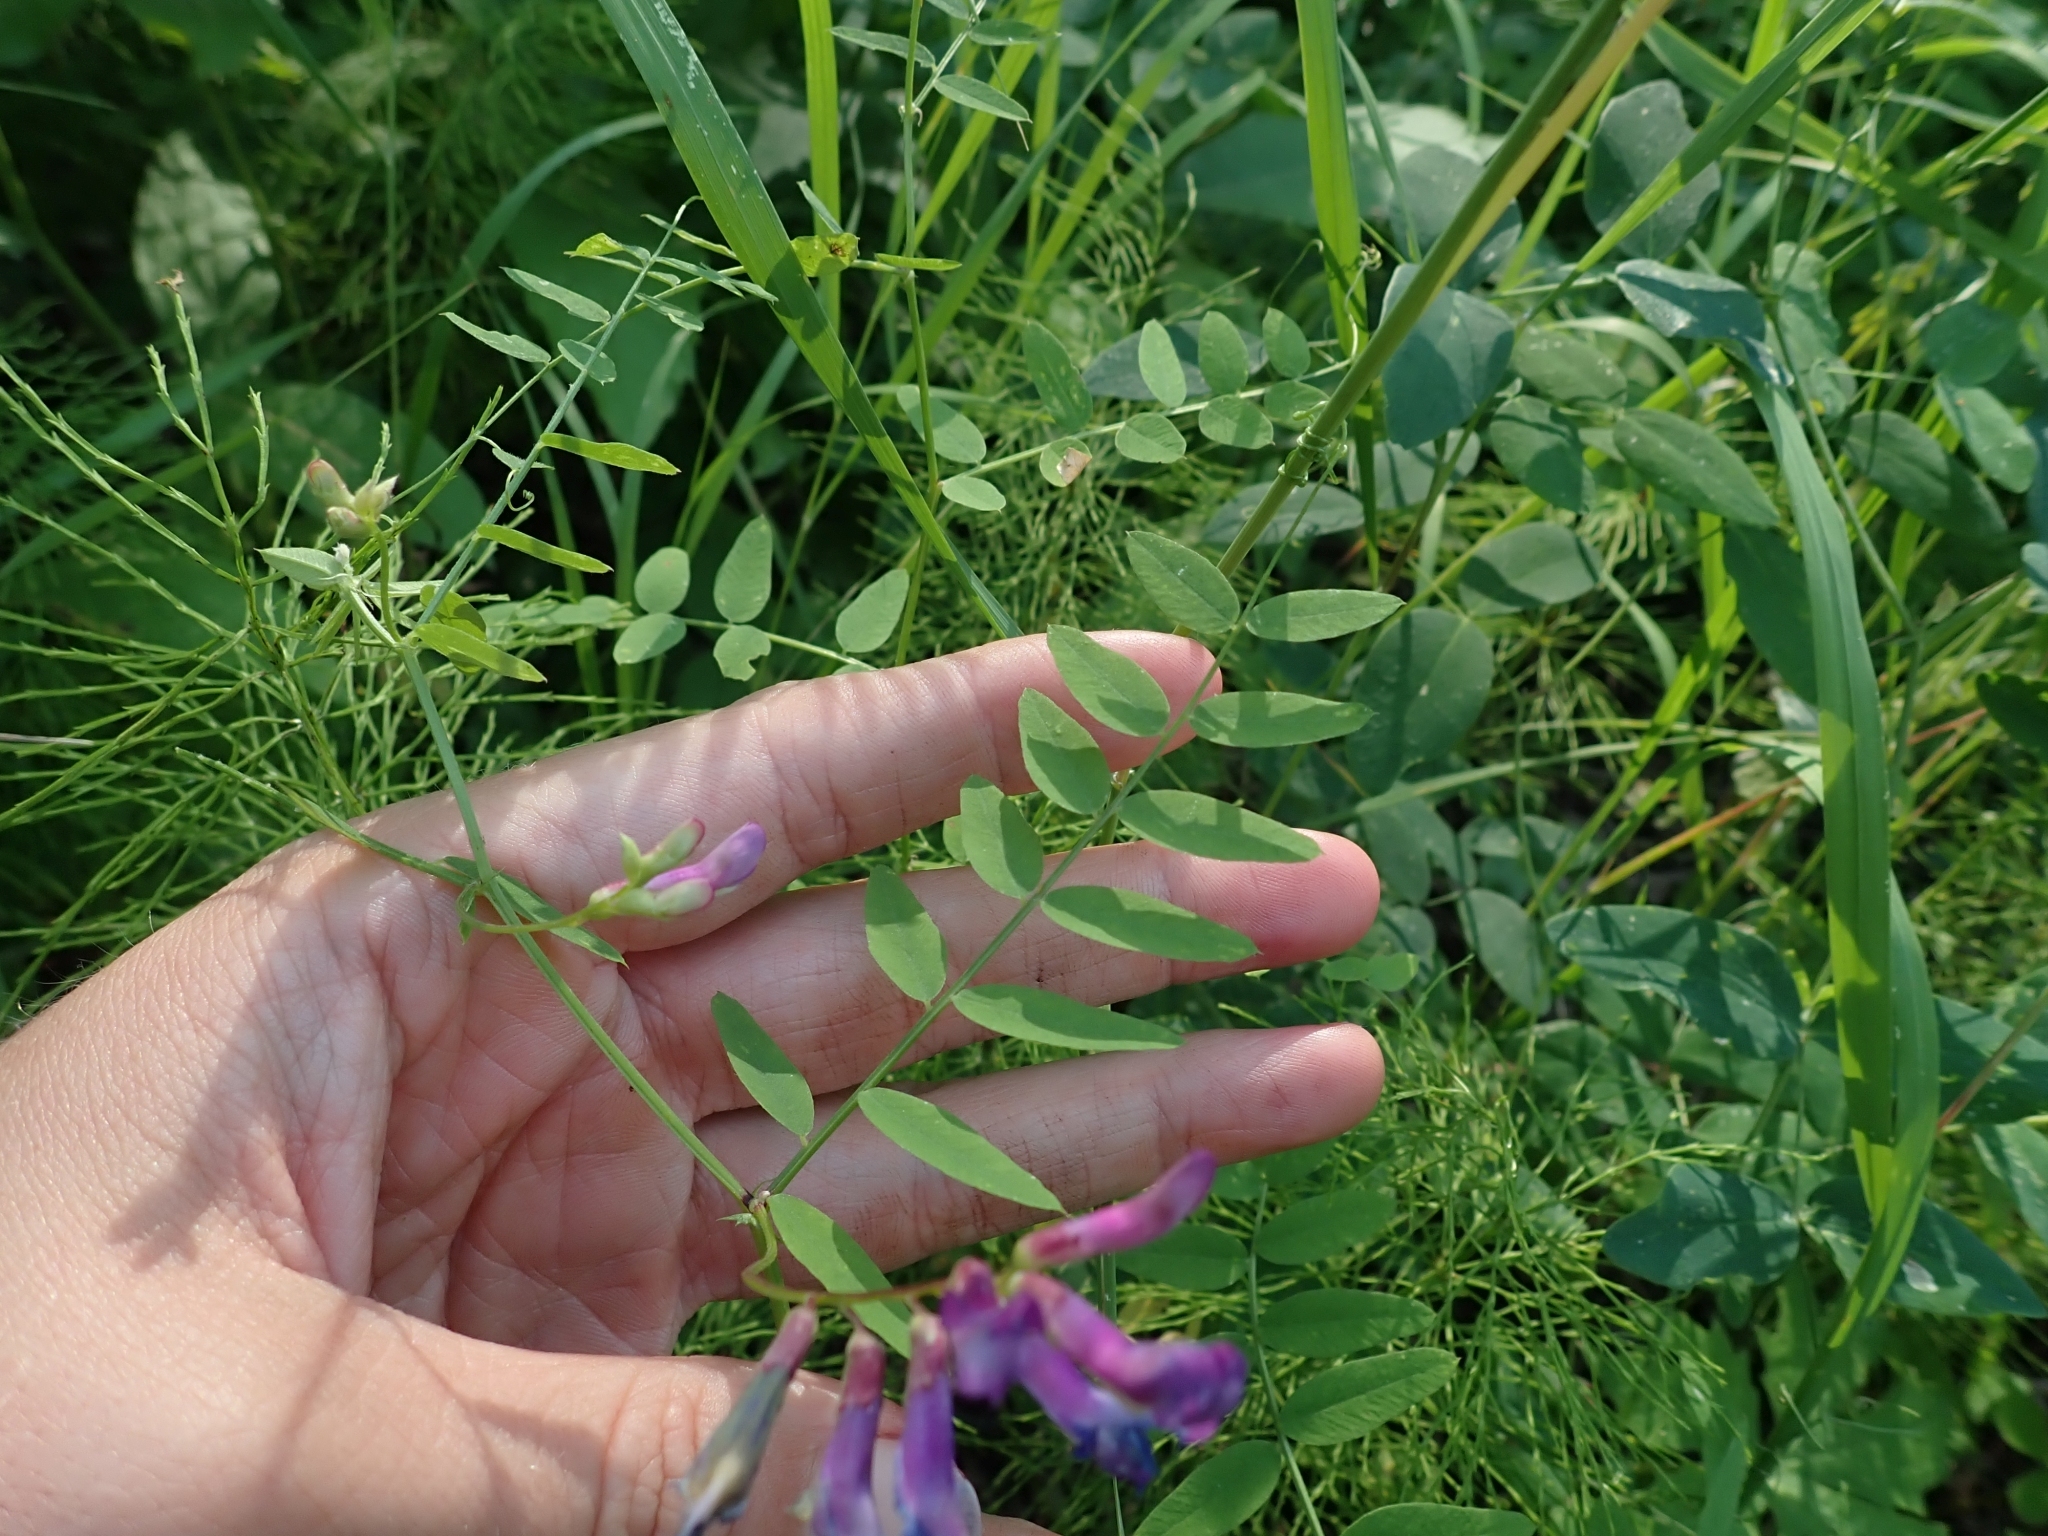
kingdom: Plantae
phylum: Tracheophyta
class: Magnoliopsida
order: Fabales
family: Fabaceae
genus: Vicia
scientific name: Vicia americana
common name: American vetch
